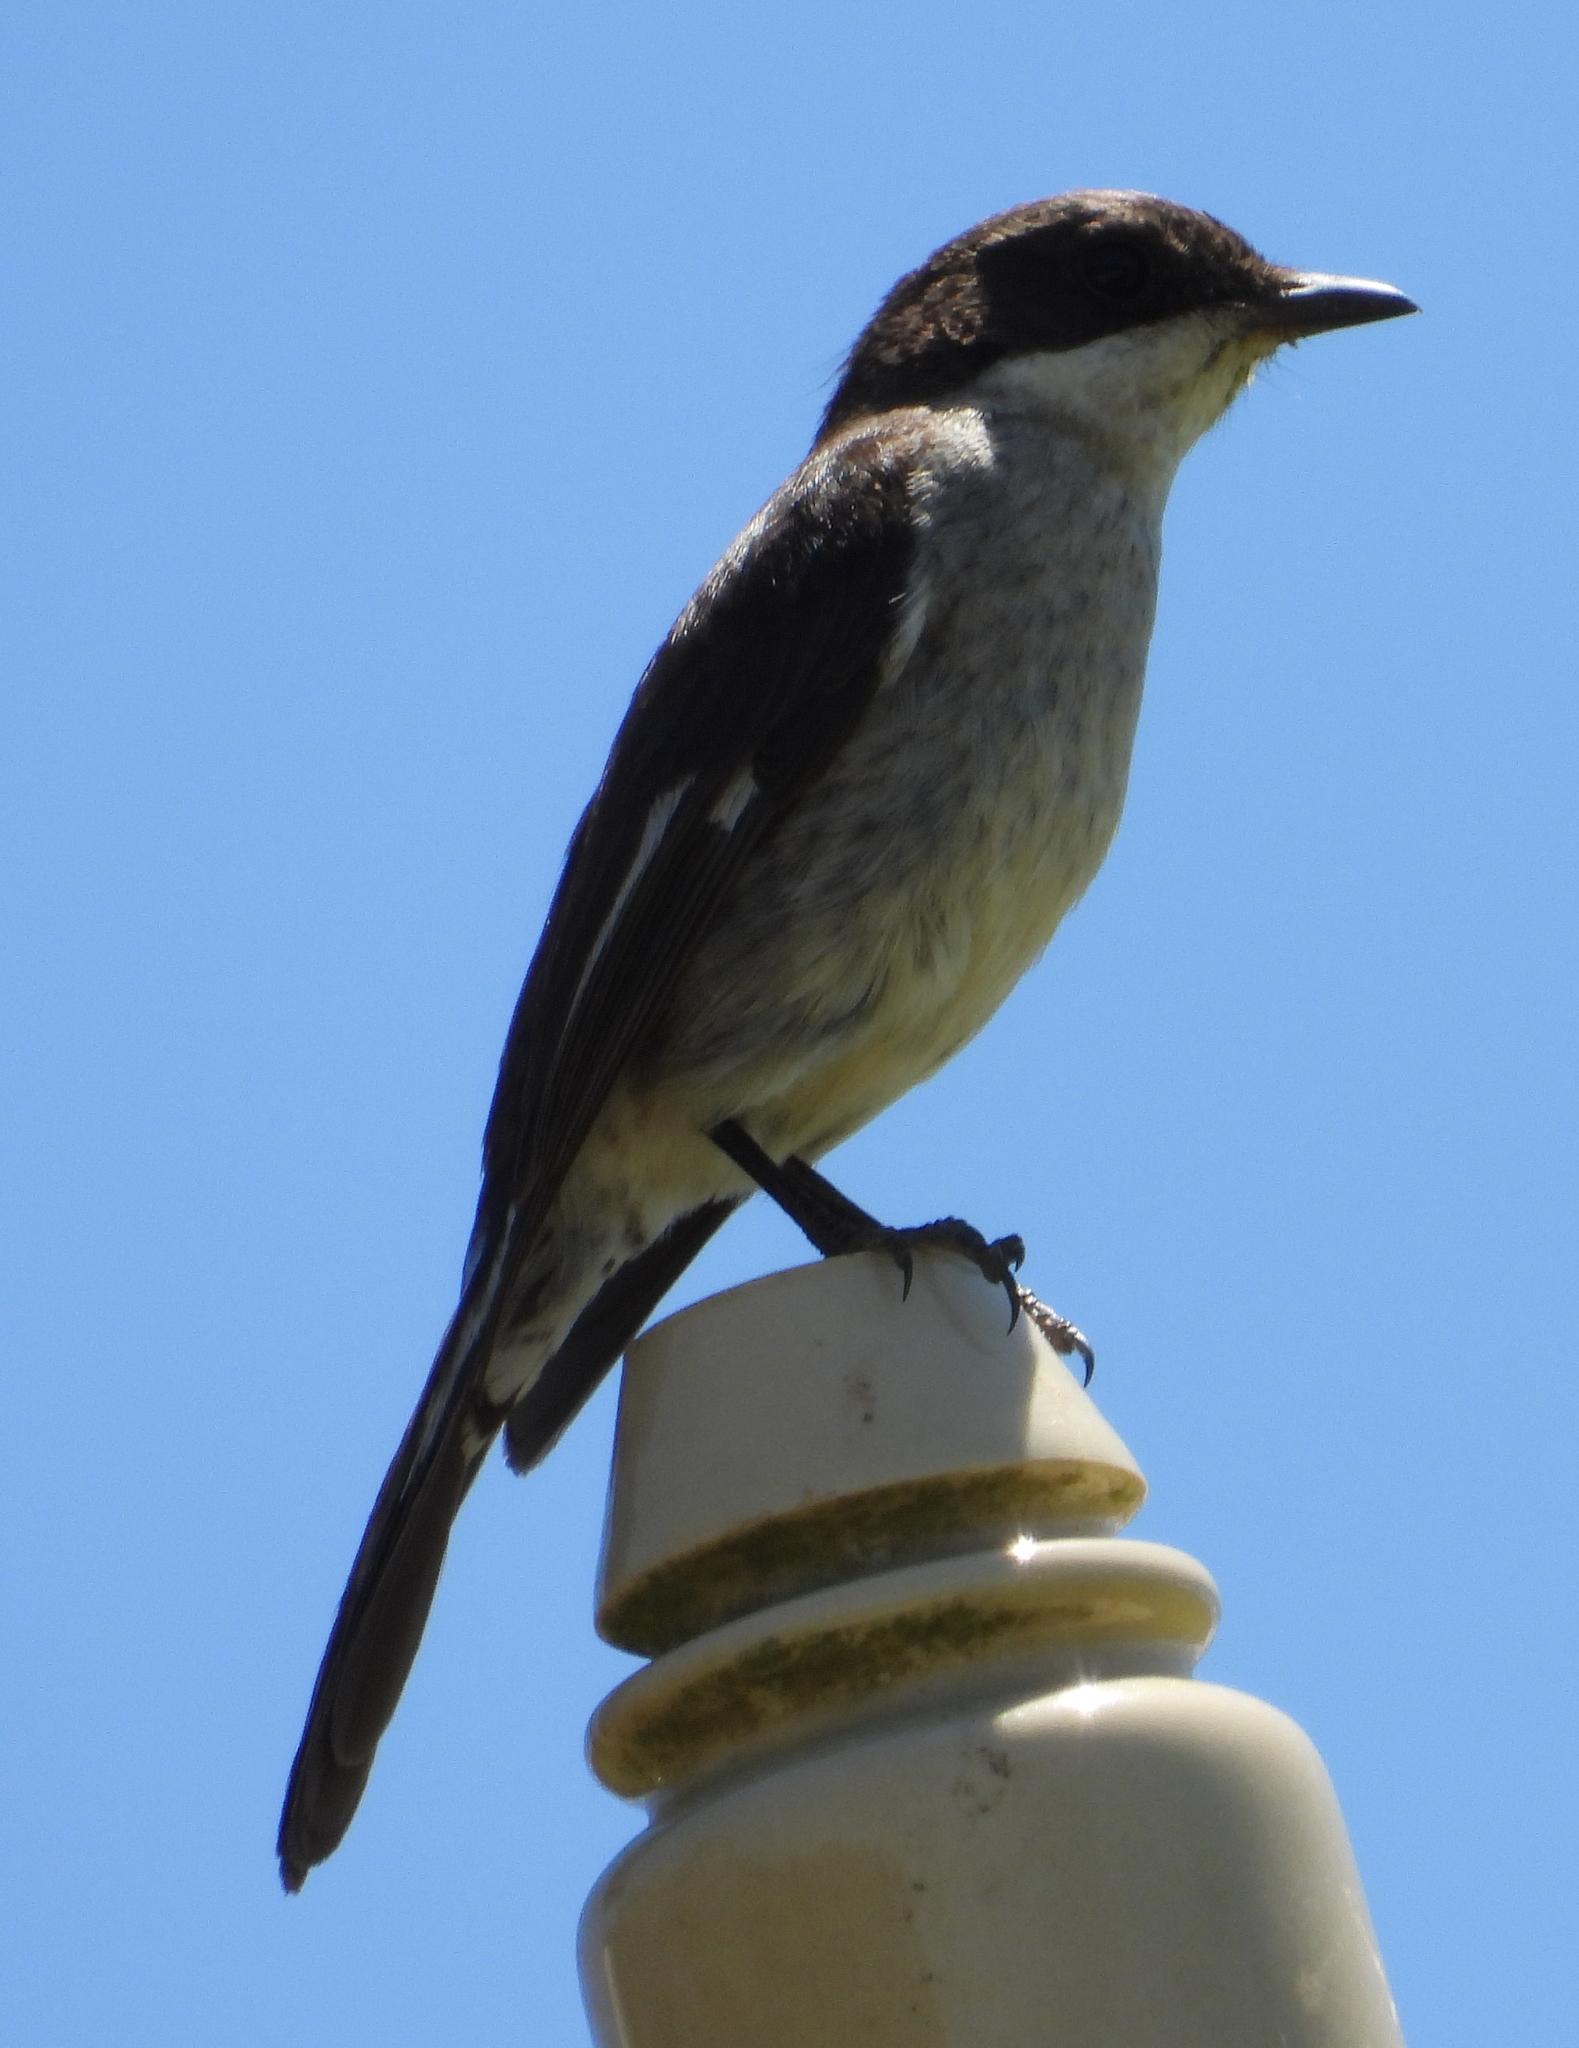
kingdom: Animalia
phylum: Chordata
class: Aves
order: Passeriformes
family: Muscicapidae
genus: Sigelus
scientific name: Sigelus silens
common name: Fiscal flycatcher
